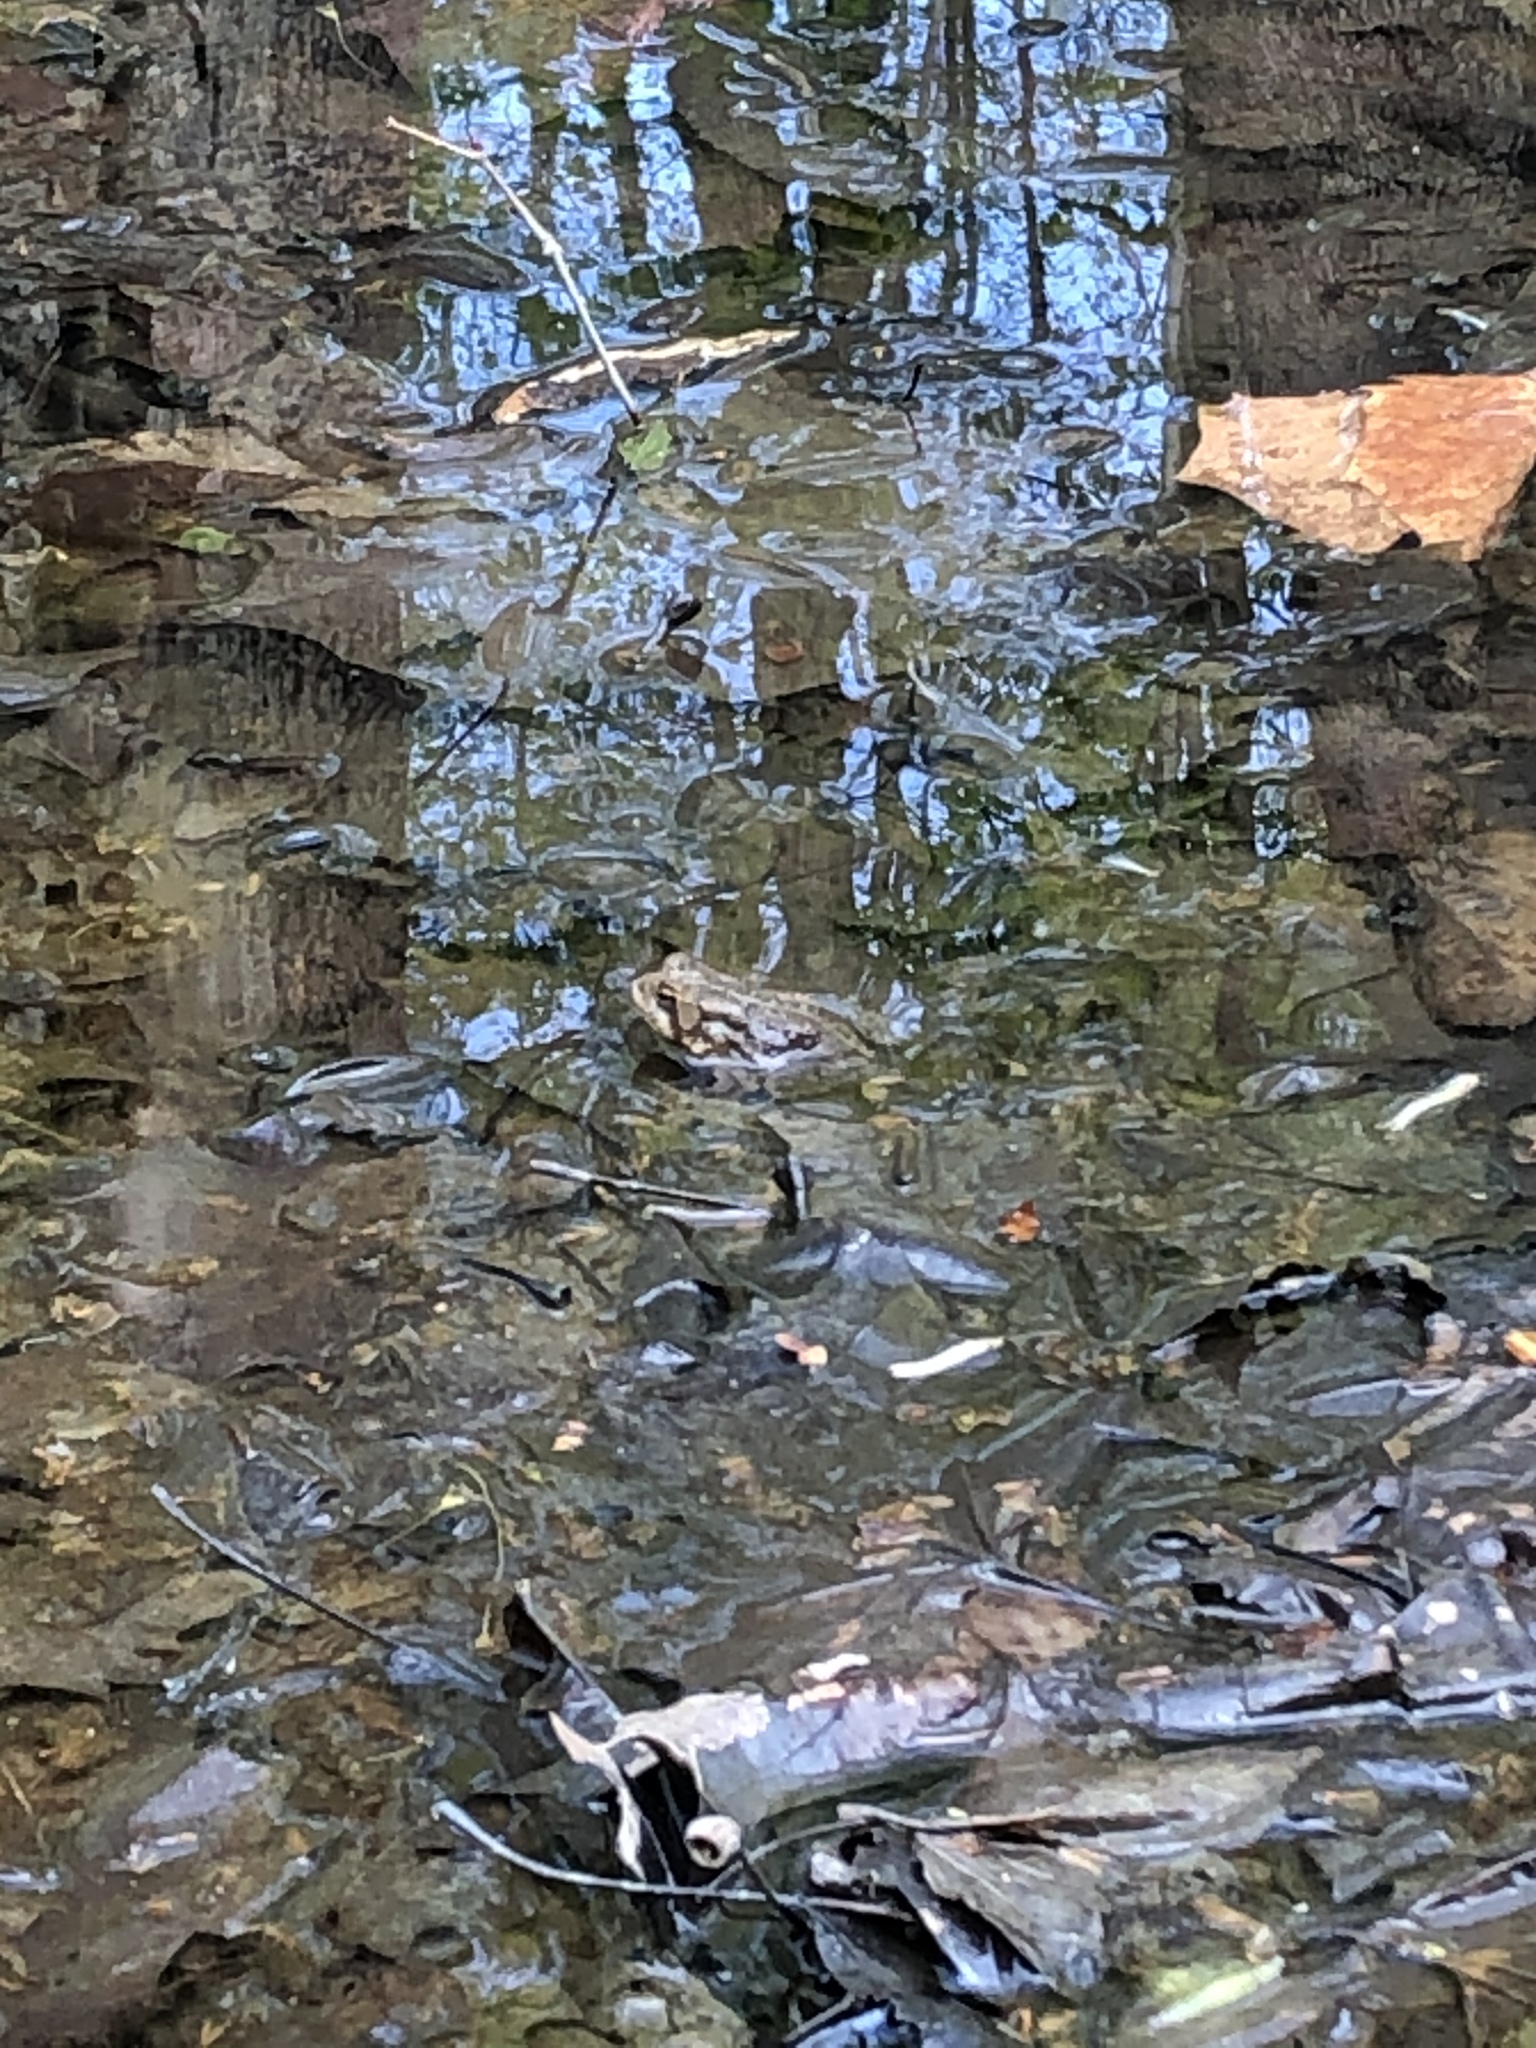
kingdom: Animalia
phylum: Chordata
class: Amphibia
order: Anura
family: Bufonidae
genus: Anaxyrus
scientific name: Anaxyrus americanus
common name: American toad
